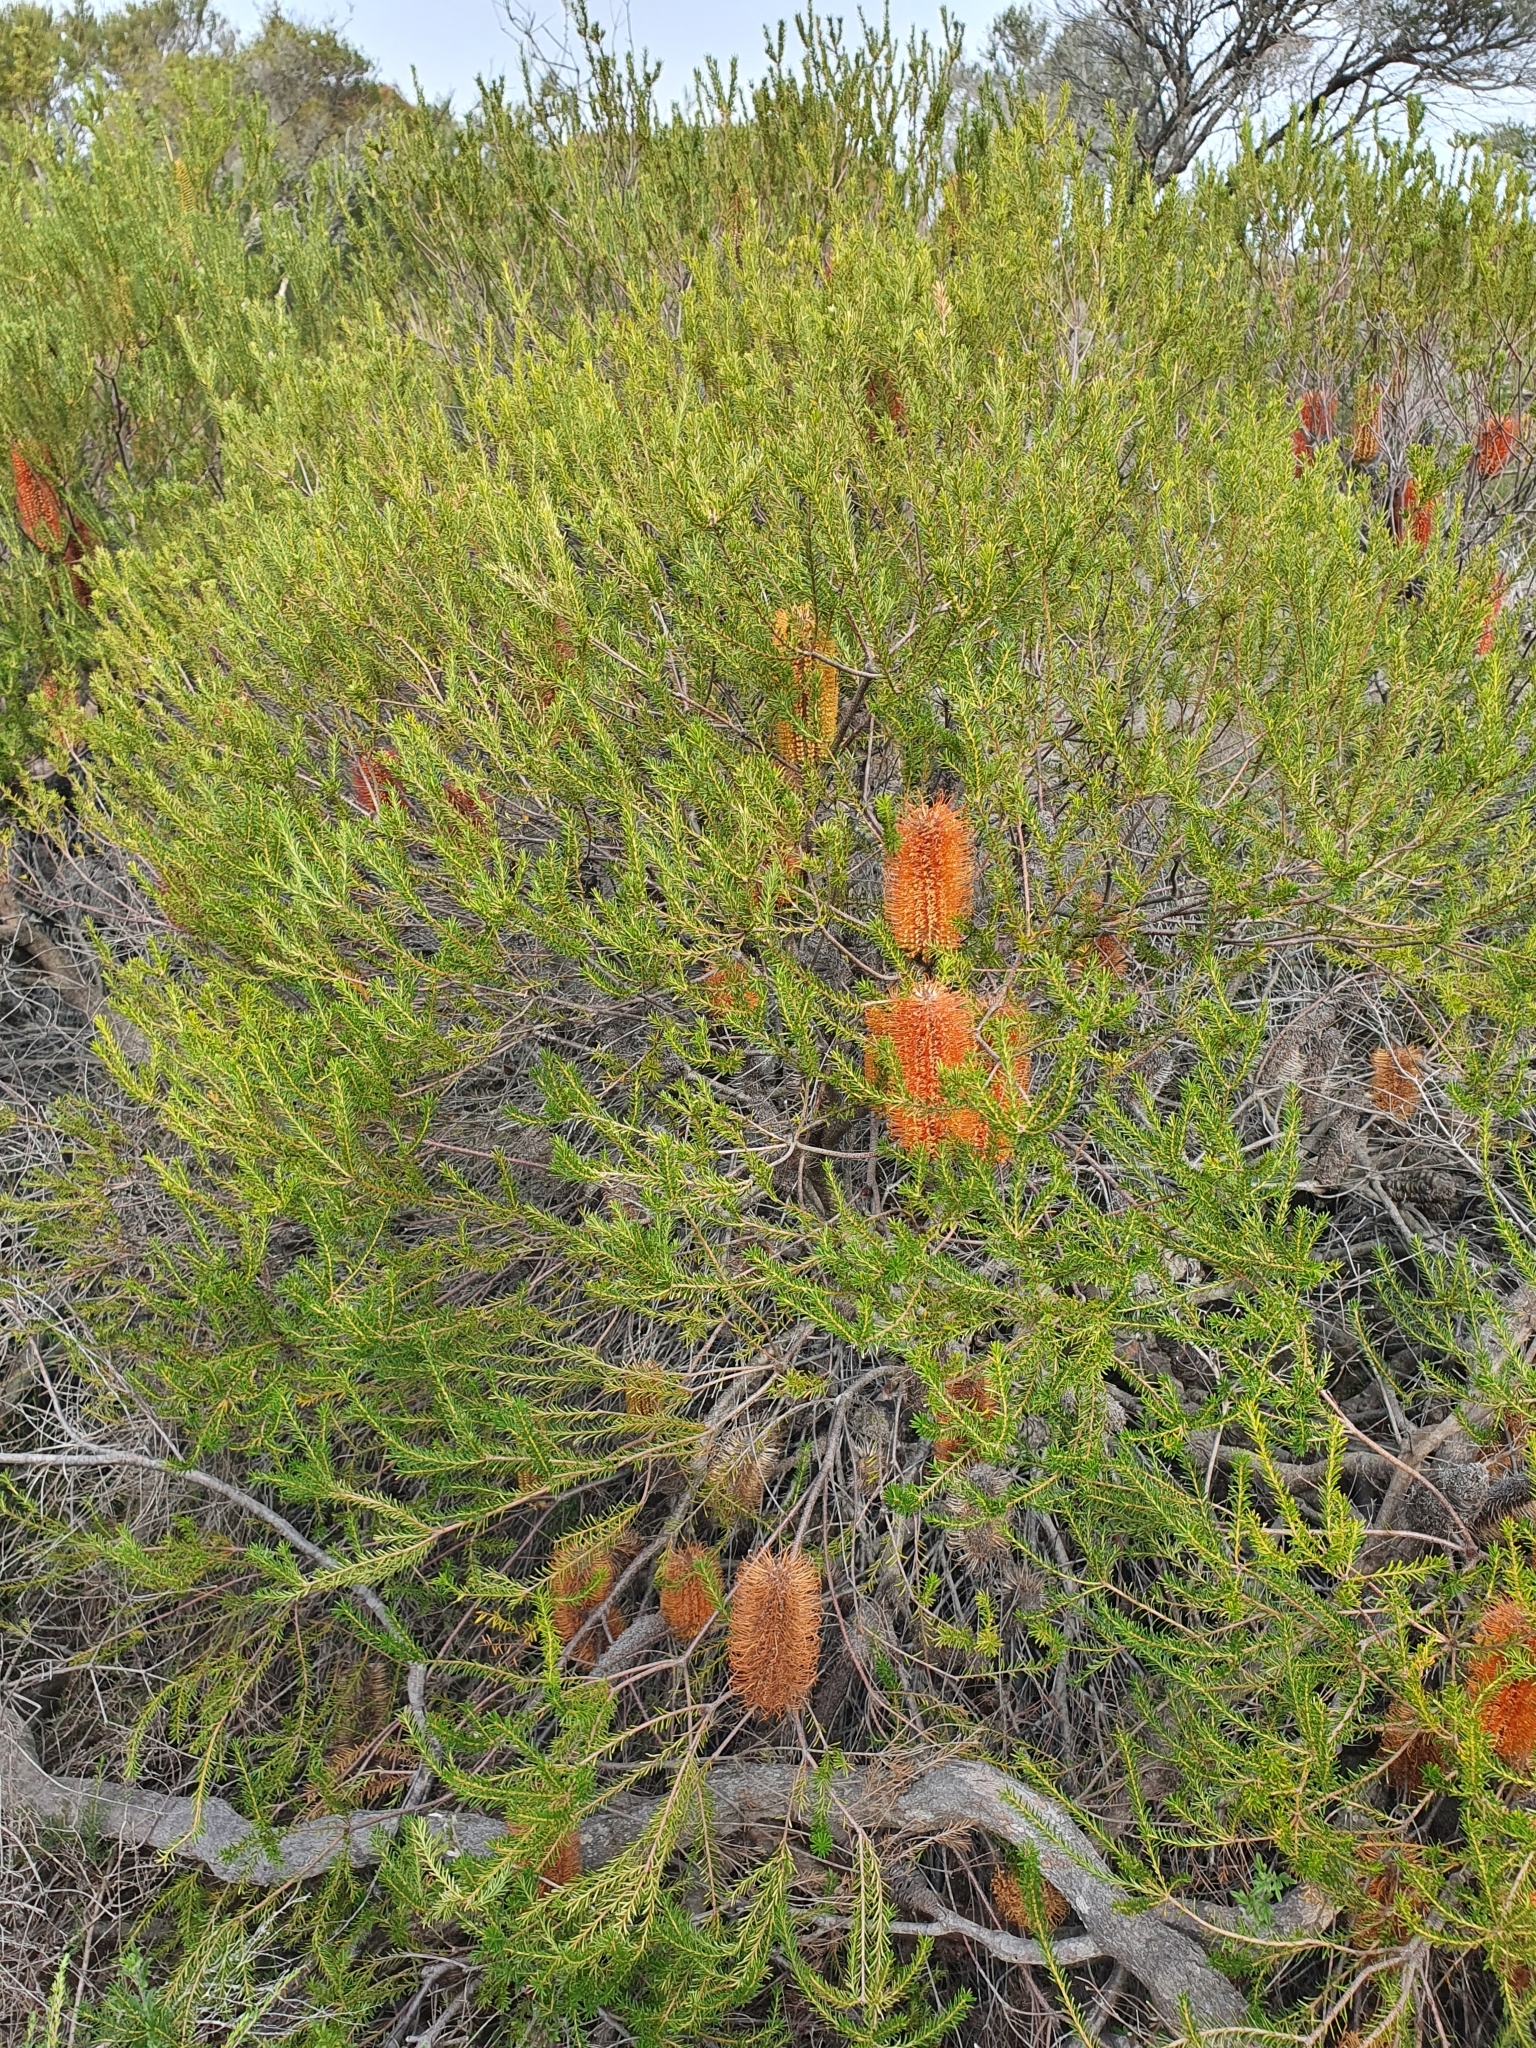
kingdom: Plantae
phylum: Tracheophyta
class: Magnoliopsida
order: Proteales
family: Proteaceae
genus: Banksia
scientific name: Banksia ericifolia
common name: Heath-leaf banksia
